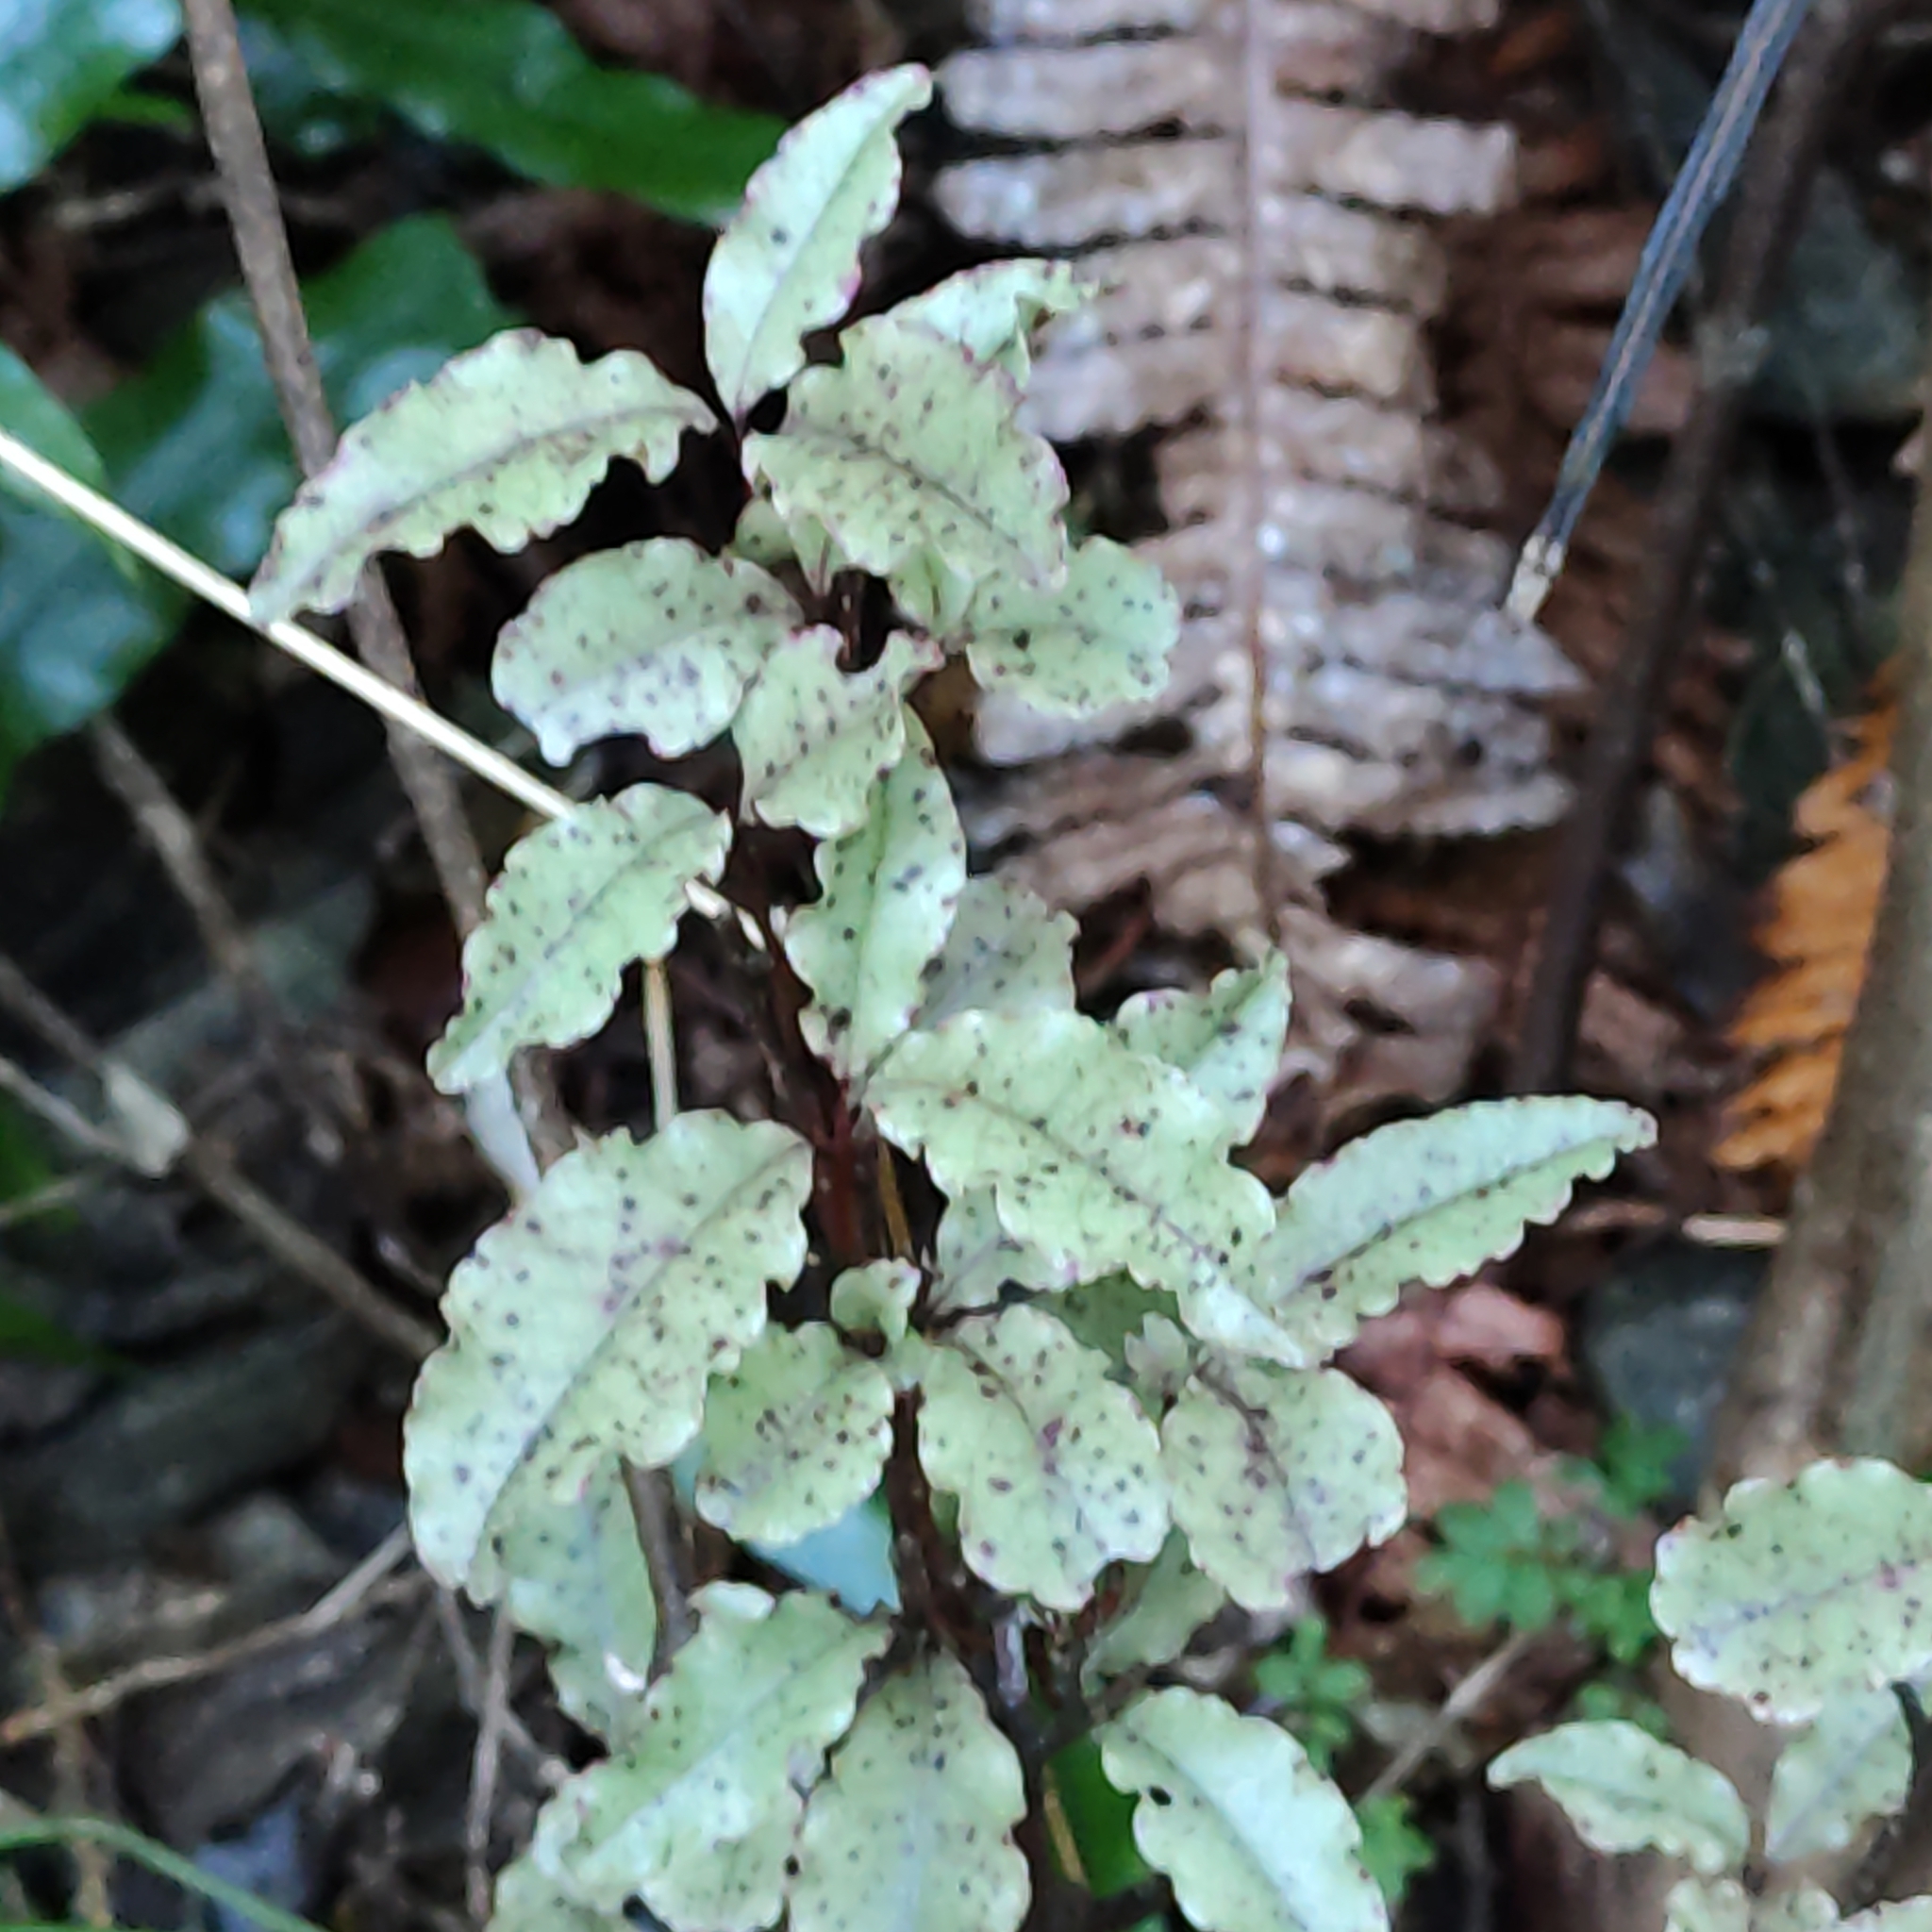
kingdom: Plantae
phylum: Tracheophyta
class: Magnoliopsida
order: Ericales
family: Primulaceae
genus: Myrsine
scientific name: Myrsine australis
